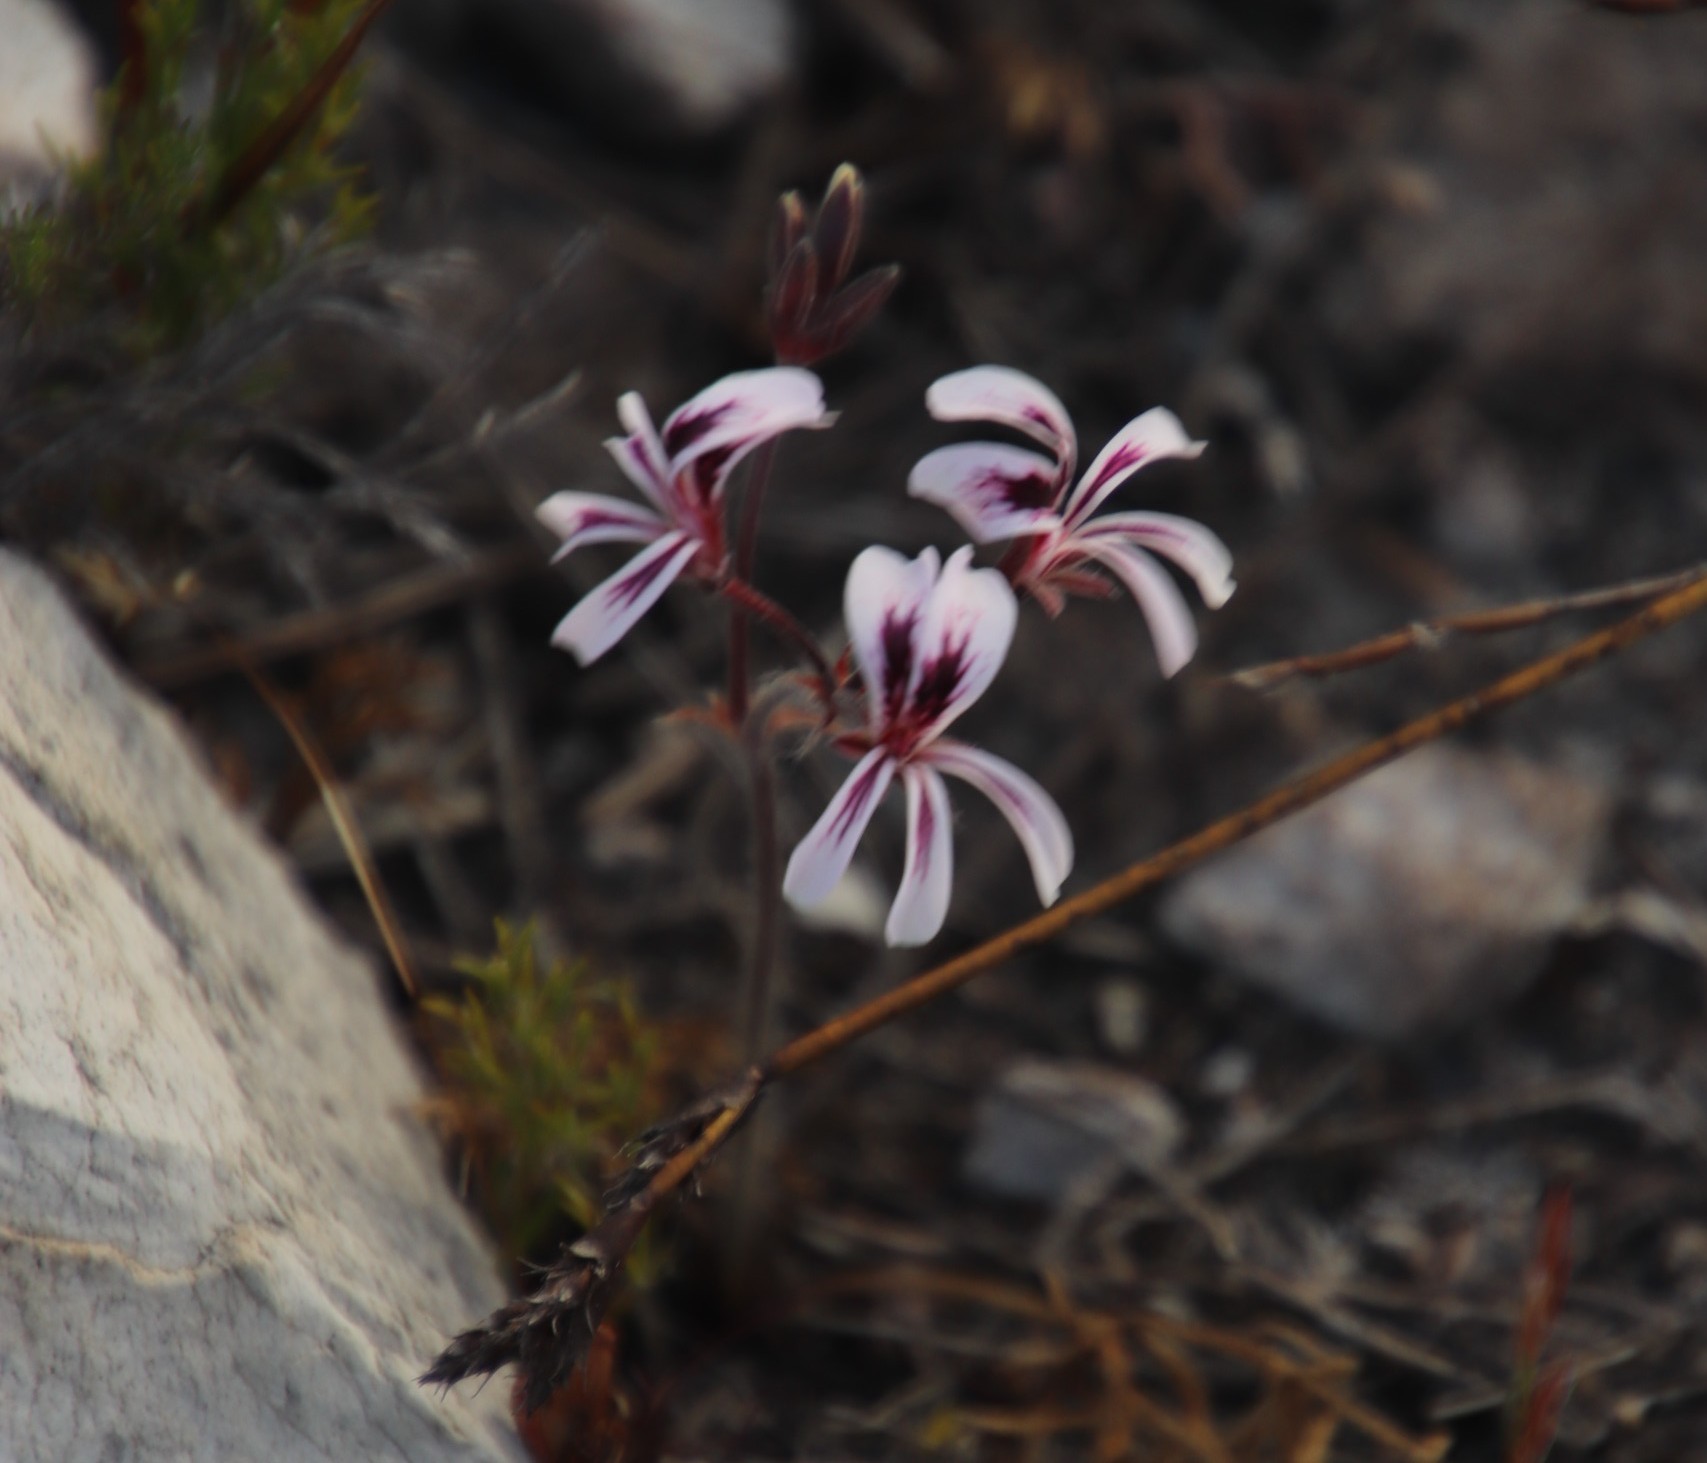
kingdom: Plantae
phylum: Tracheophyta
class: Magnoliopsida
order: Geraniales
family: Geraniaceae
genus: Pelargonium
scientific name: Pelargonium proliferum
